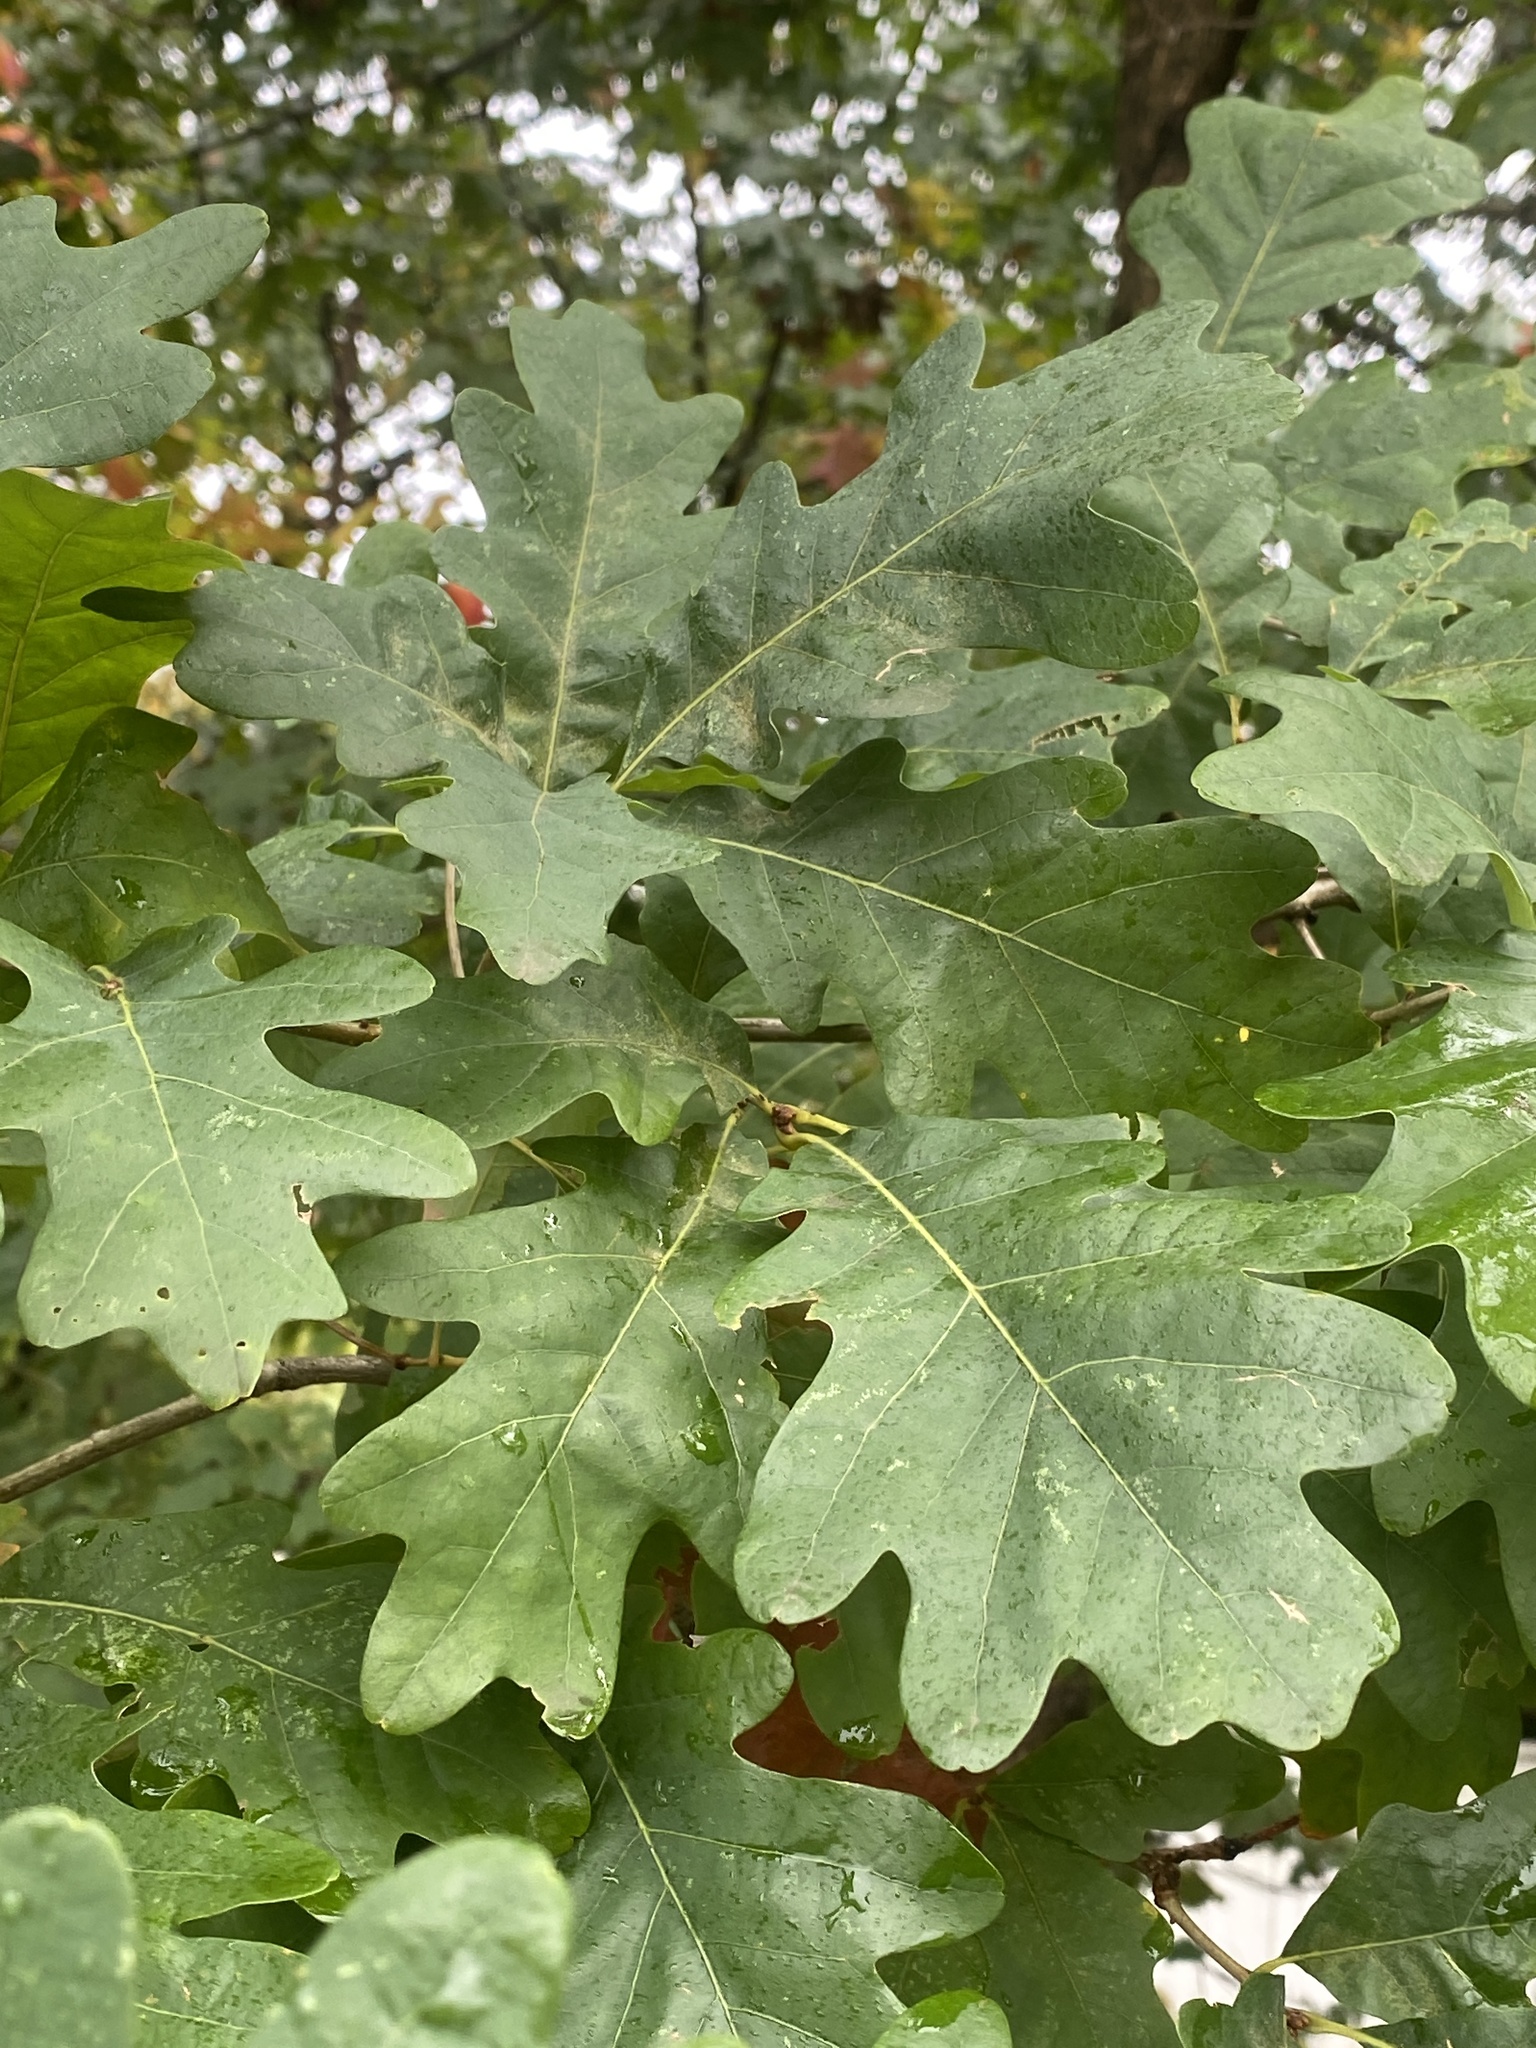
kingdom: Plantae
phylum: Tracheophyta
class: Magnoliopsida
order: Fagales
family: Fagaceae
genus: Quercus
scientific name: Quercus alba
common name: White oak
